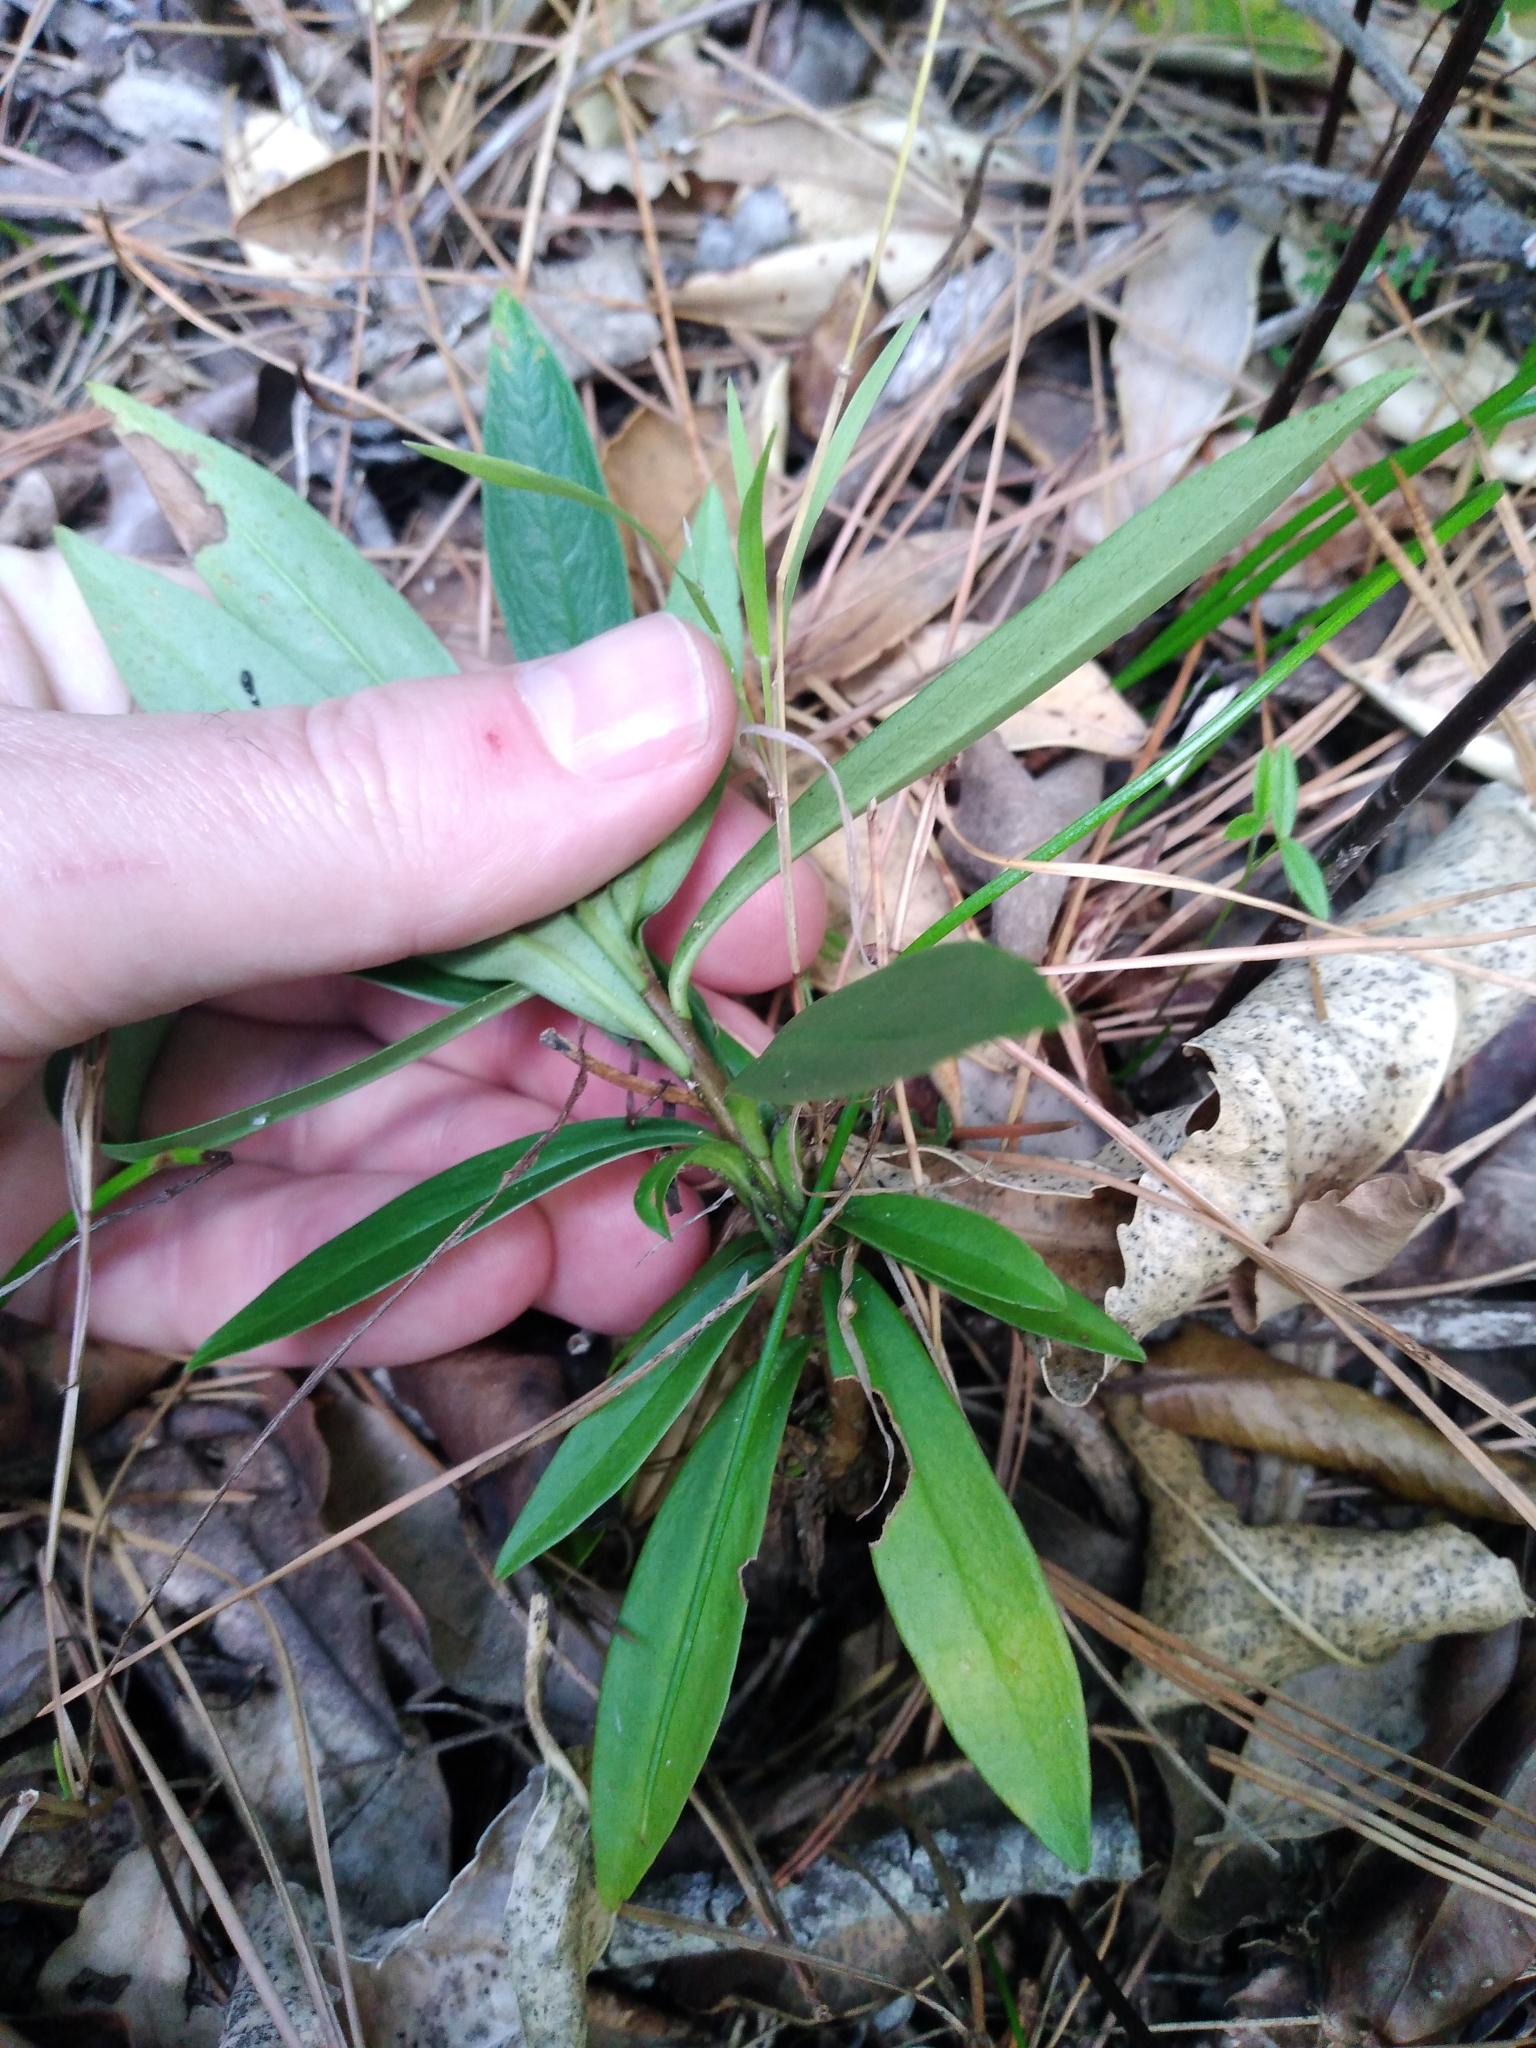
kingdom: Plantae
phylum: Tracheophyta
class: Magnoliopsida
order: Malvales
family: Thymelaeaceae
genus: Daphne
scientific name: Daphne laureola
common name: Spurge-laurel
